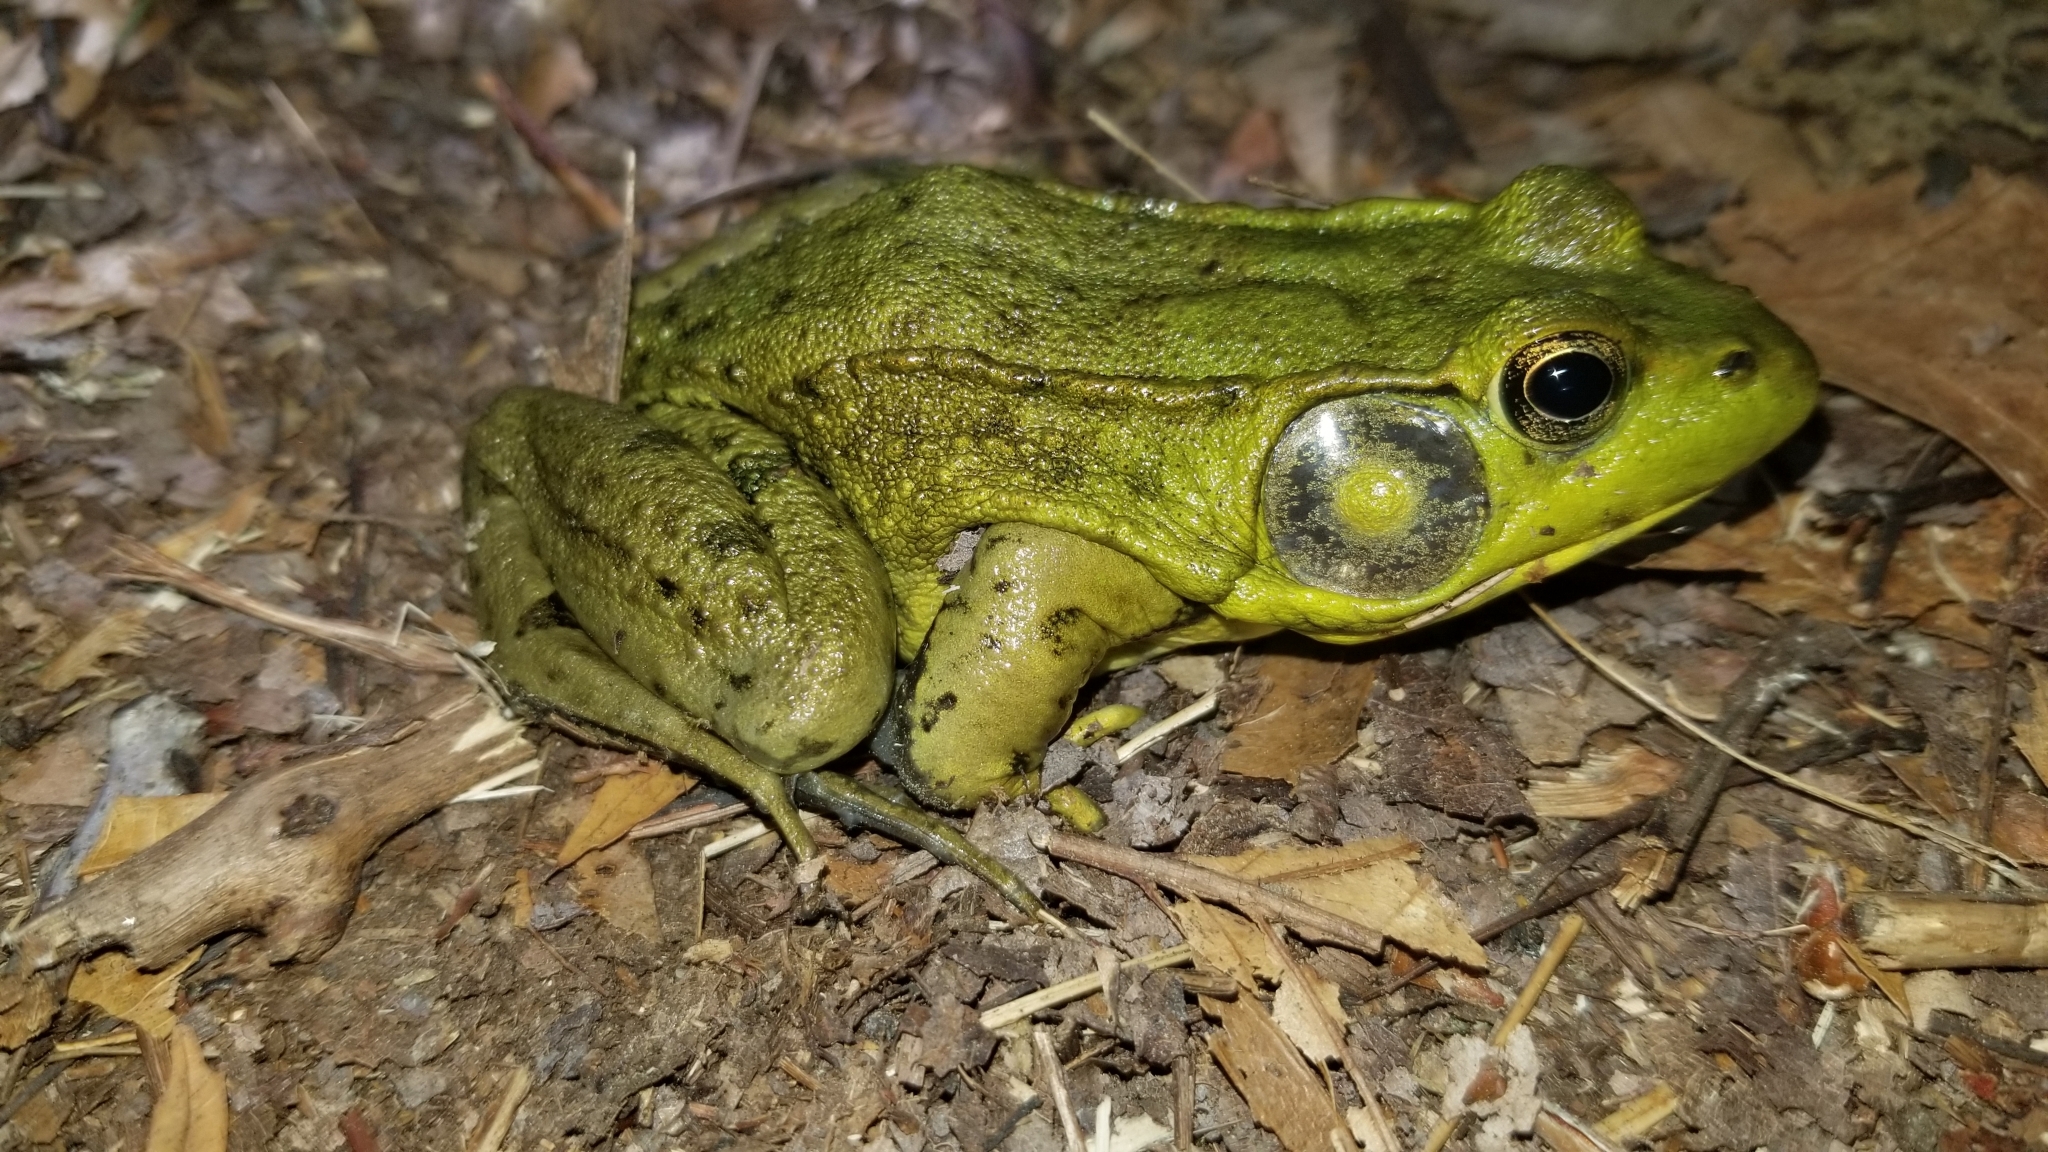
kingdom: Animalia
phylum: Chordata
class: Amphibia
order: Anura
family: Ranidae
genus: Lithobates
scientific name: Lithobates clamitans
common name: Green frog
